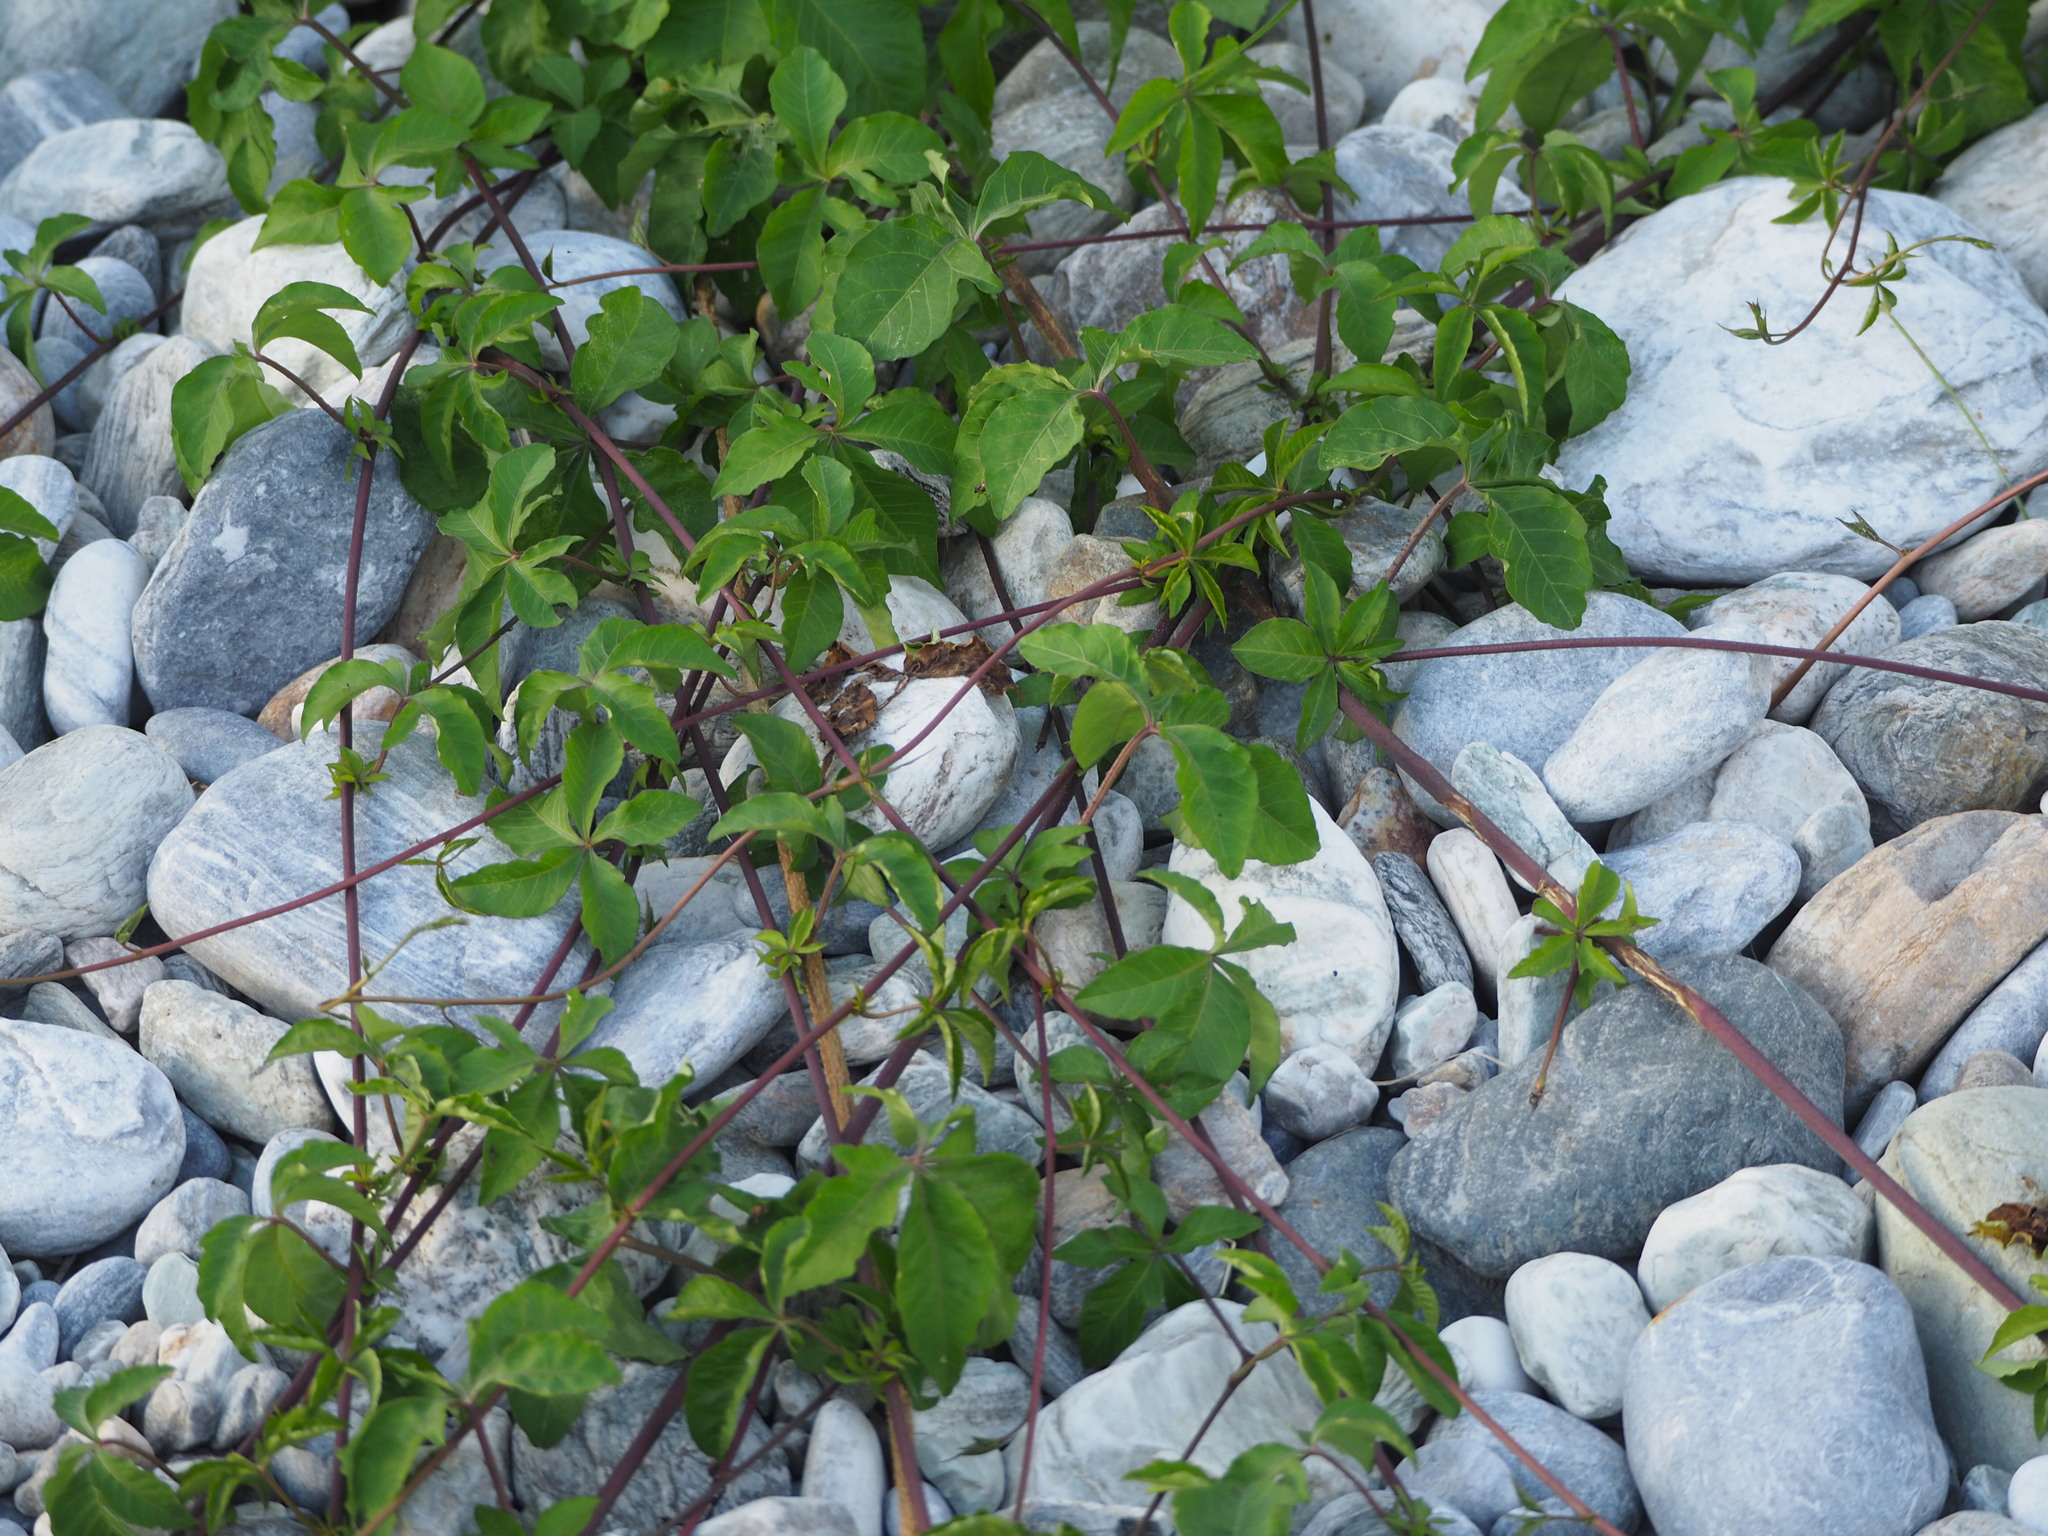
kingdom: Plantae
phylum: Tracheophyta
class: Magnoliopsida
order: Solanales
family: Convolvulaceae
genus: Ipomoea
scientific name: Ipomoea cairica
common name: Mile a minute vine
